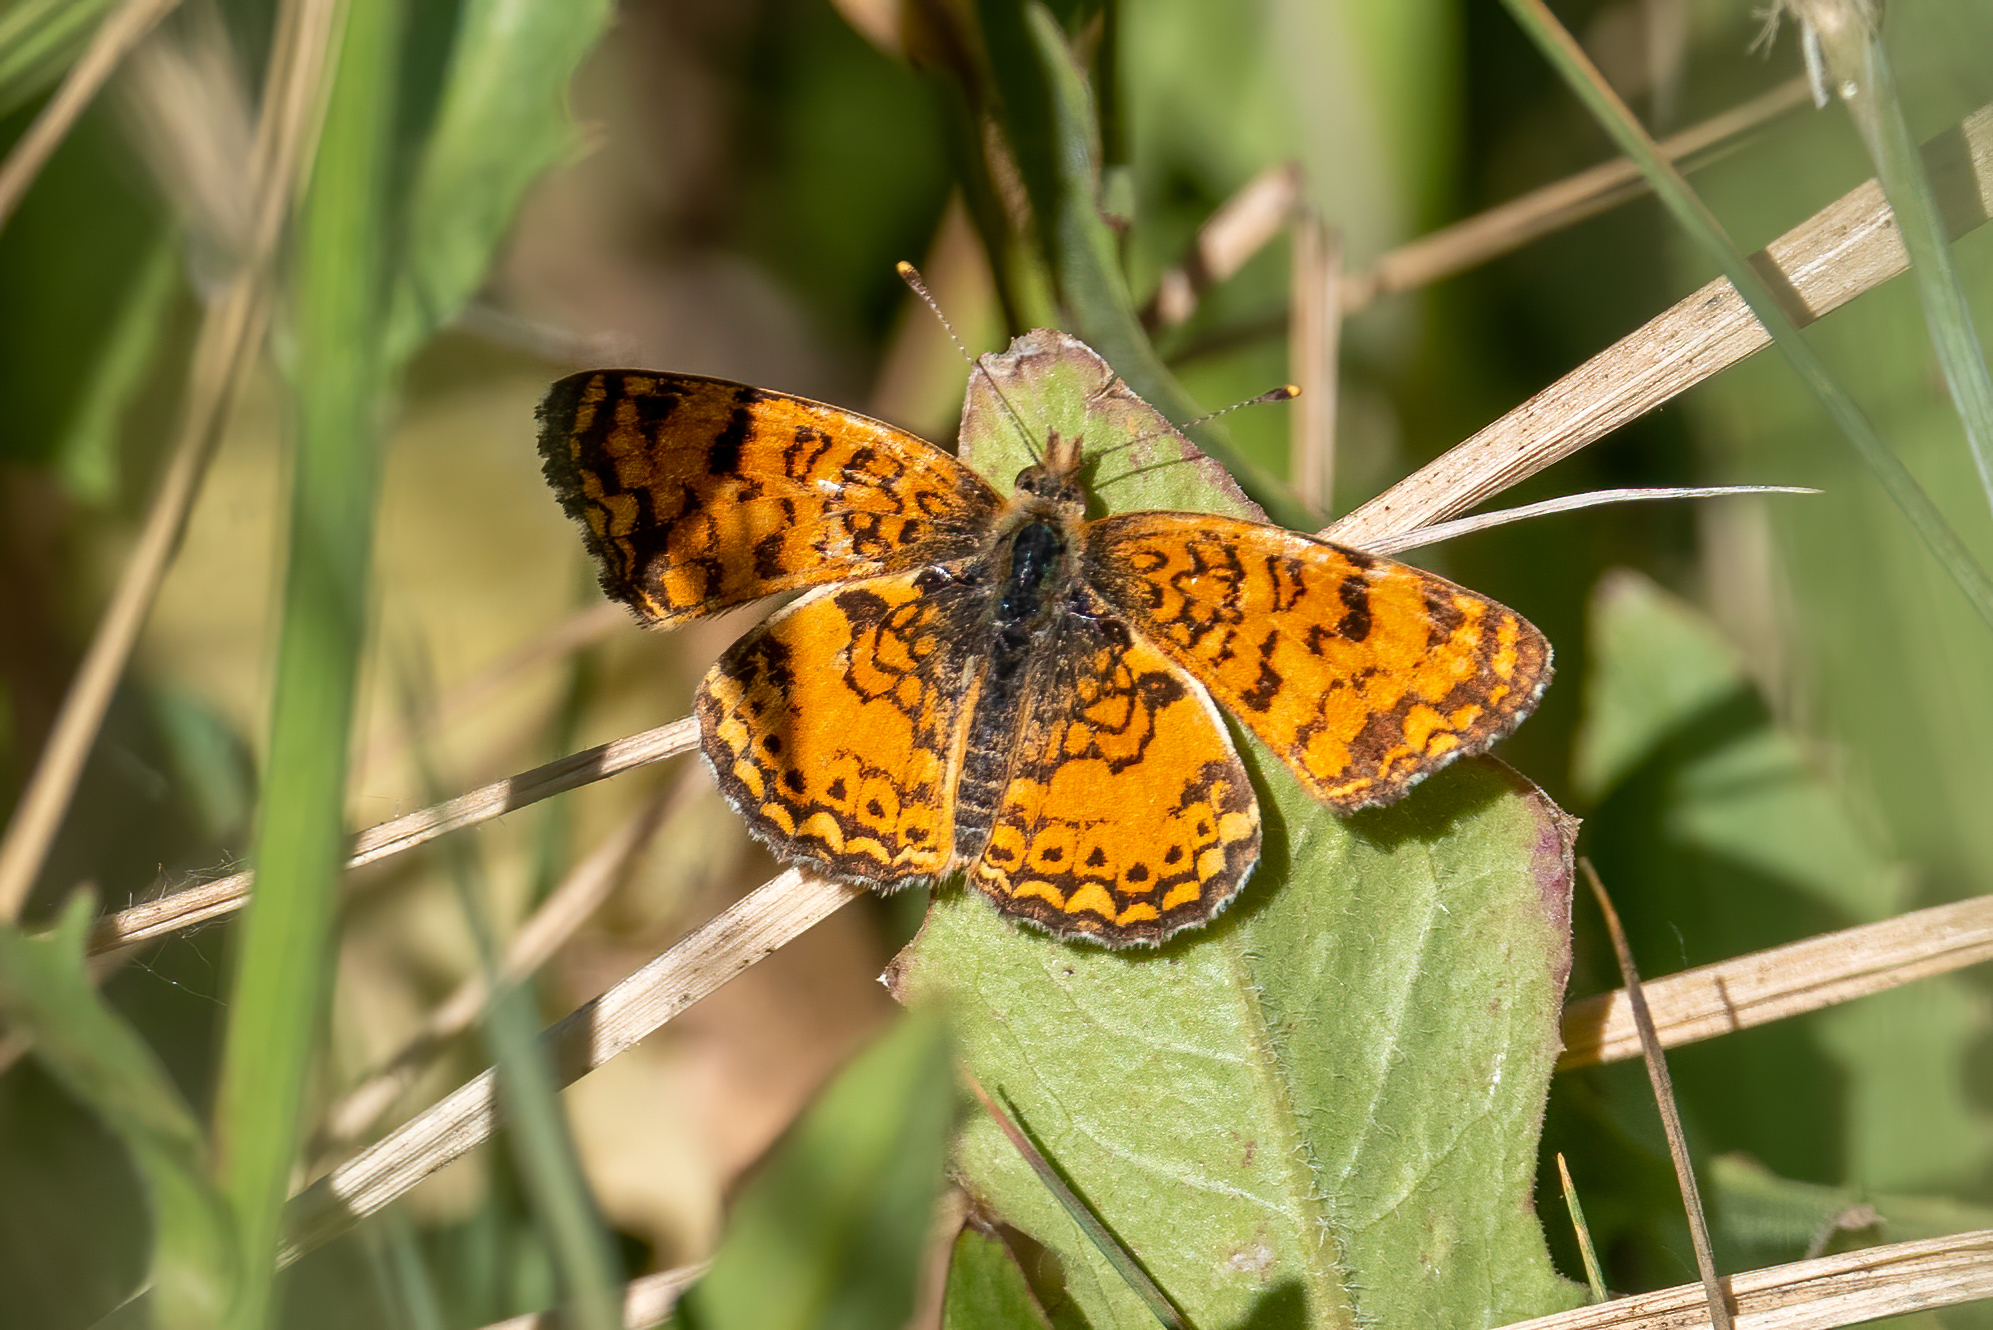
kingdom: Animalia
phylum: Arthropoda
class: Insecta
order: Lepidoptera
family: Nymphalidae
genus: Eresia
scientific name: Eresia aveyrona
